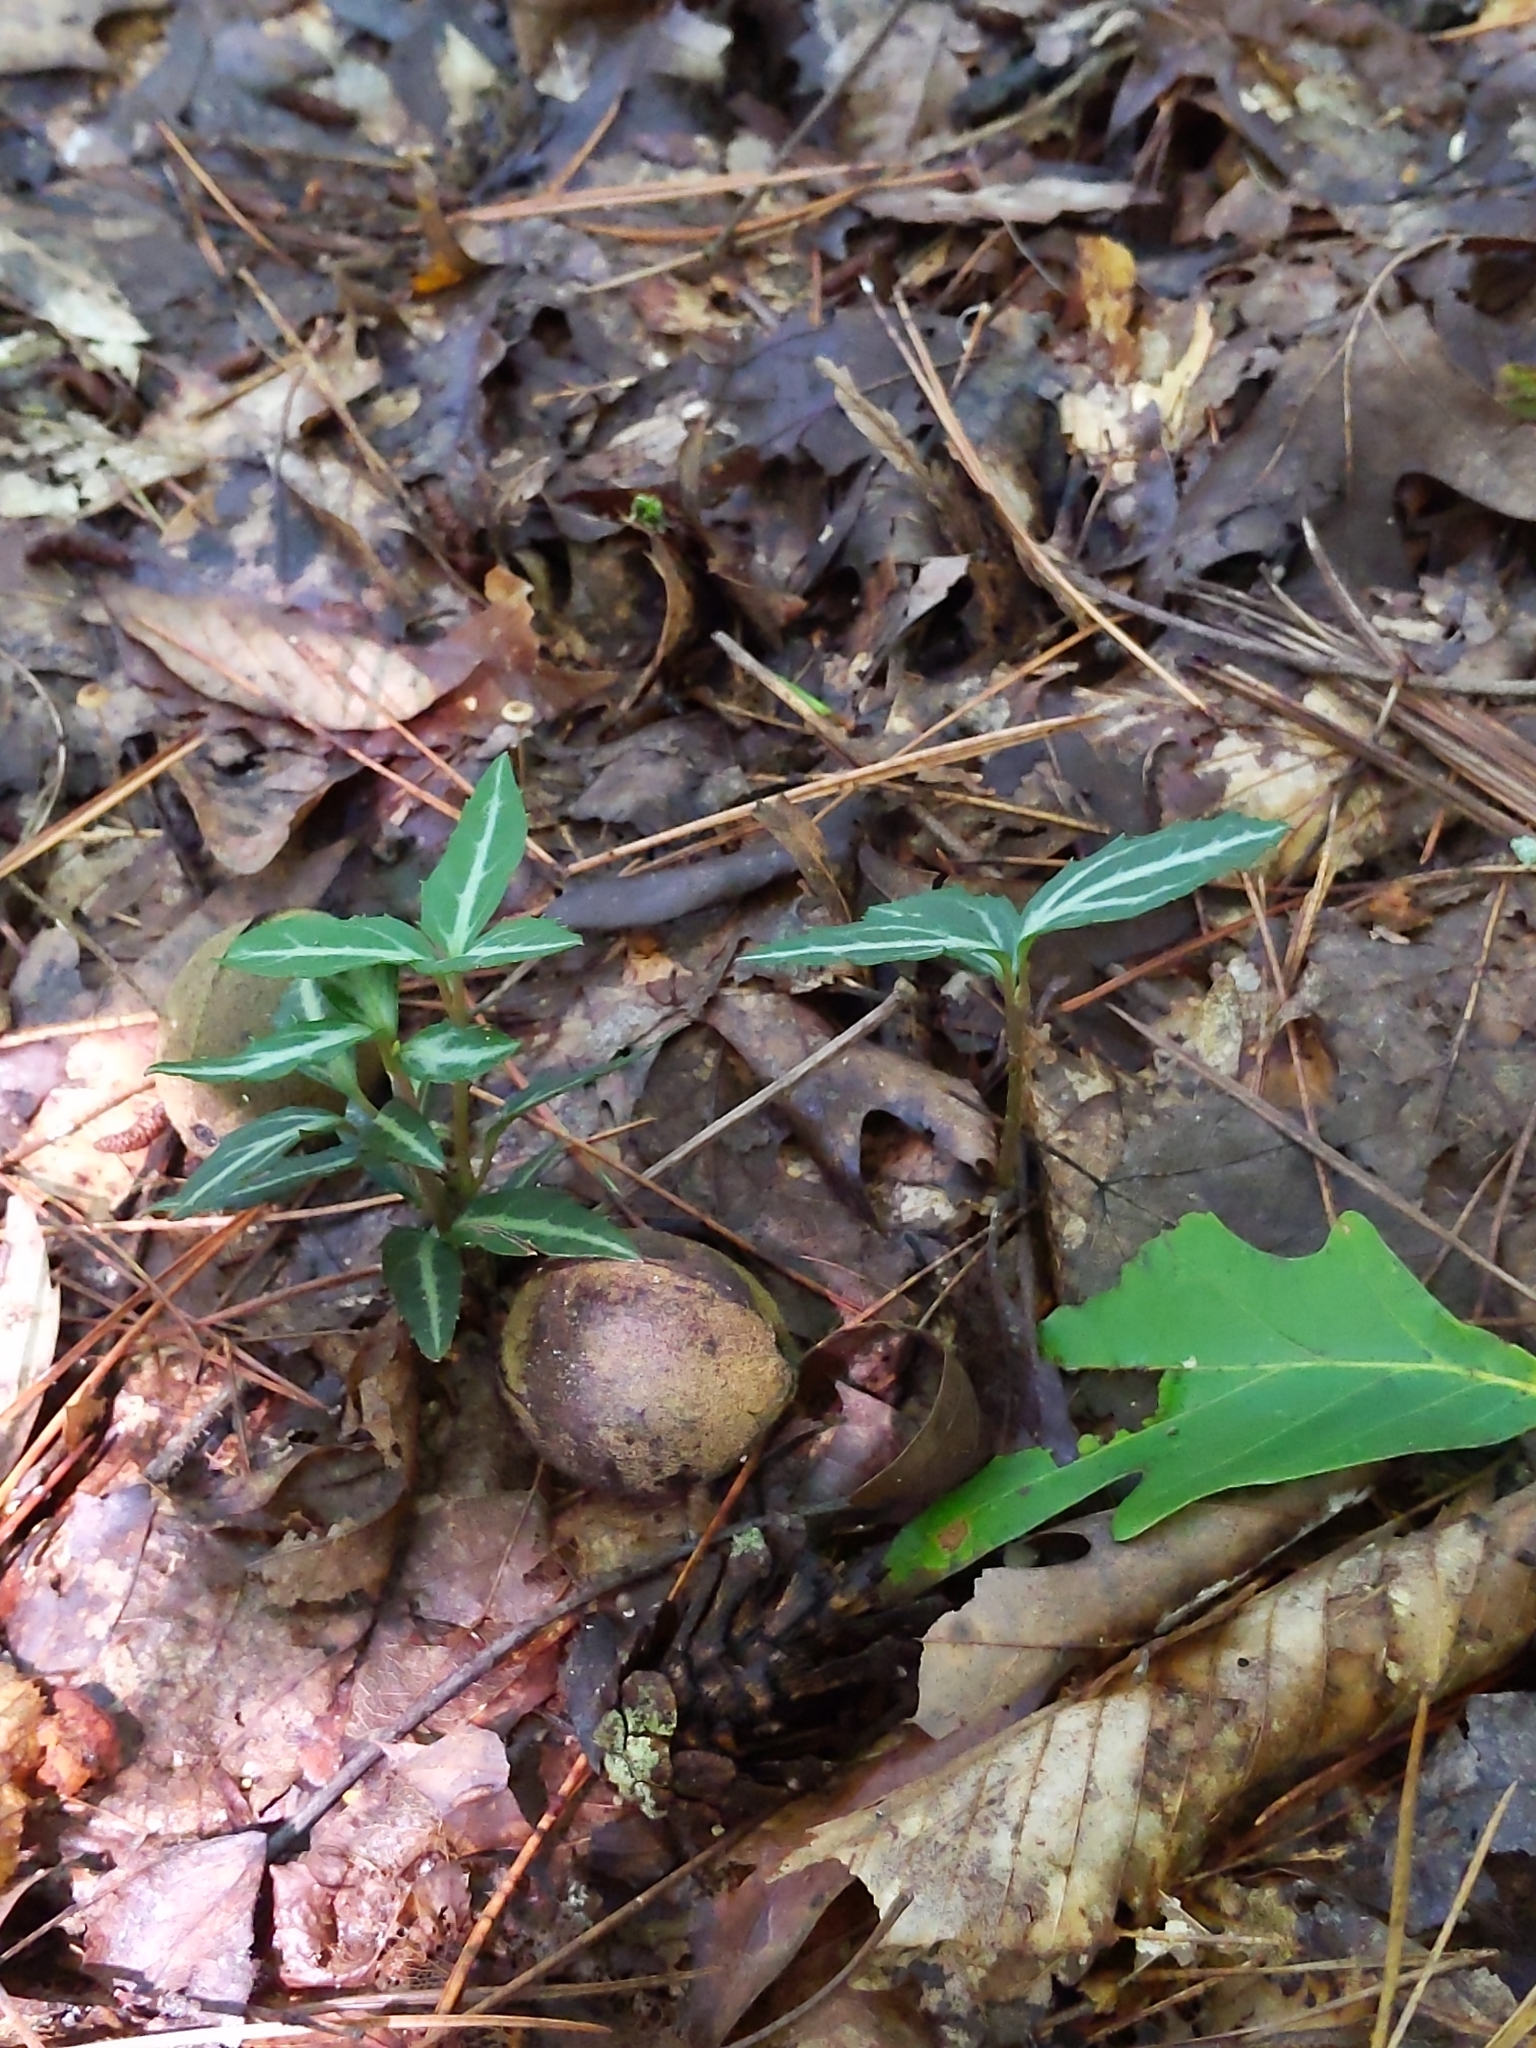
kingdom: Plantae
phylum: Tracheophyta
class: Magnoliopsida
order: Ericales
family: Ericaceae
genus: Chimaphila
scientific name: Chimaphila maculata
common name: Spotted pipsissewa
